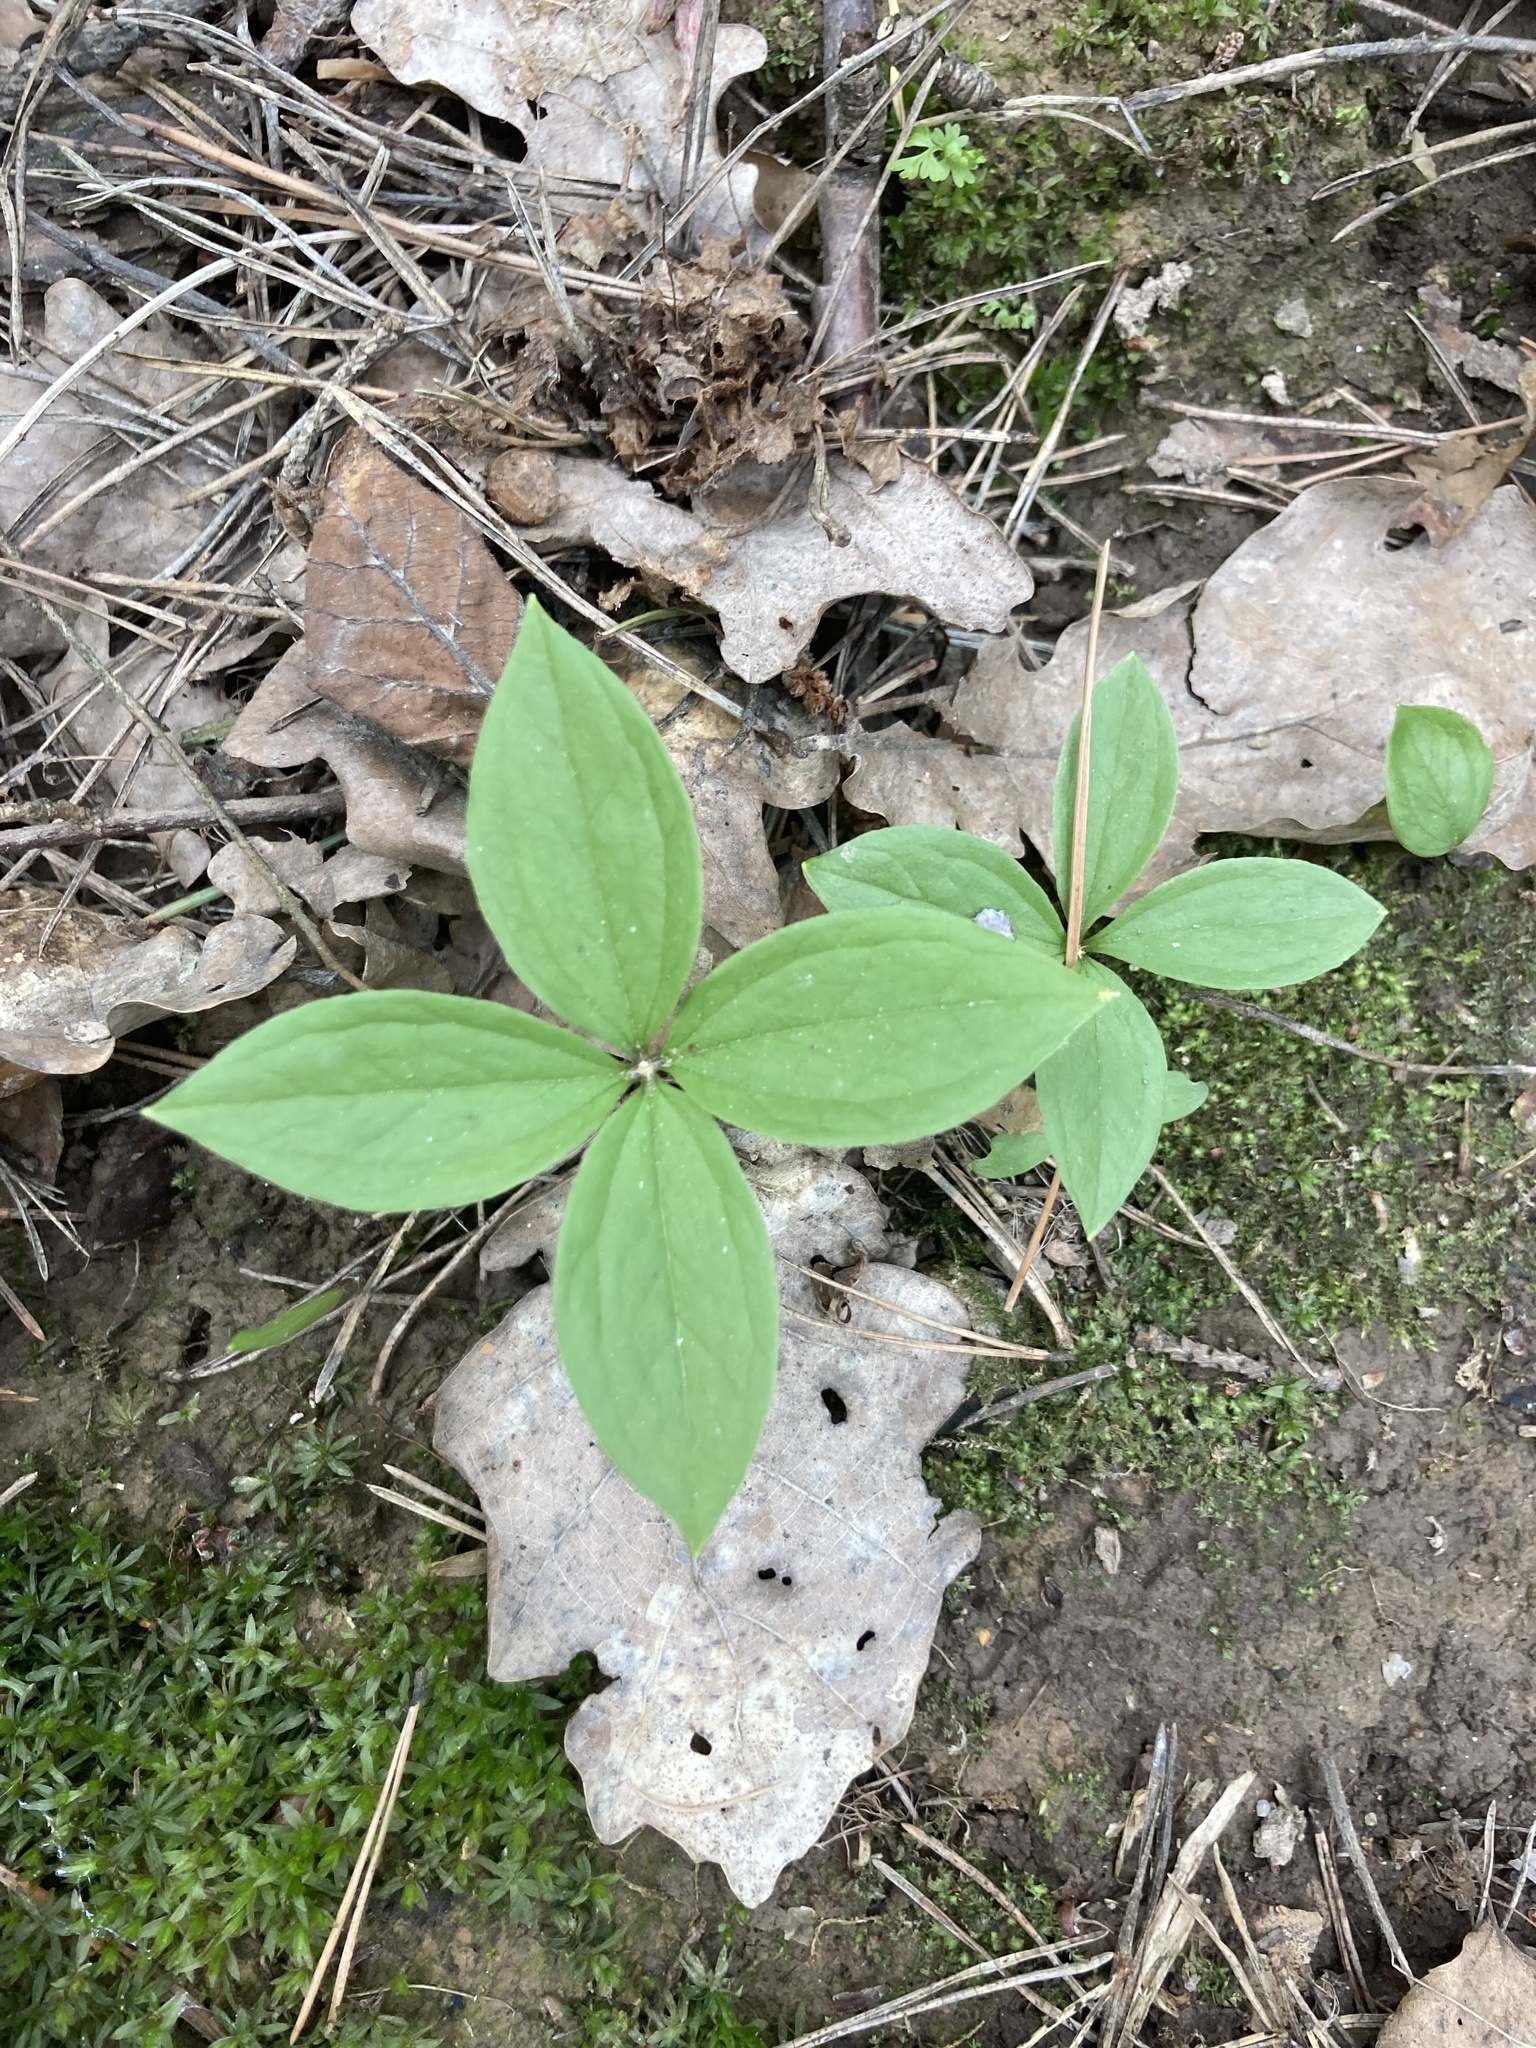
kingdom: Plantae
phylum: Tracheophyta
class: Liliopsida
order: Liliales
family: Melanthiaceae
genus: Paris
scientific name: Paris quadrifolia
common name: Herb-paris
